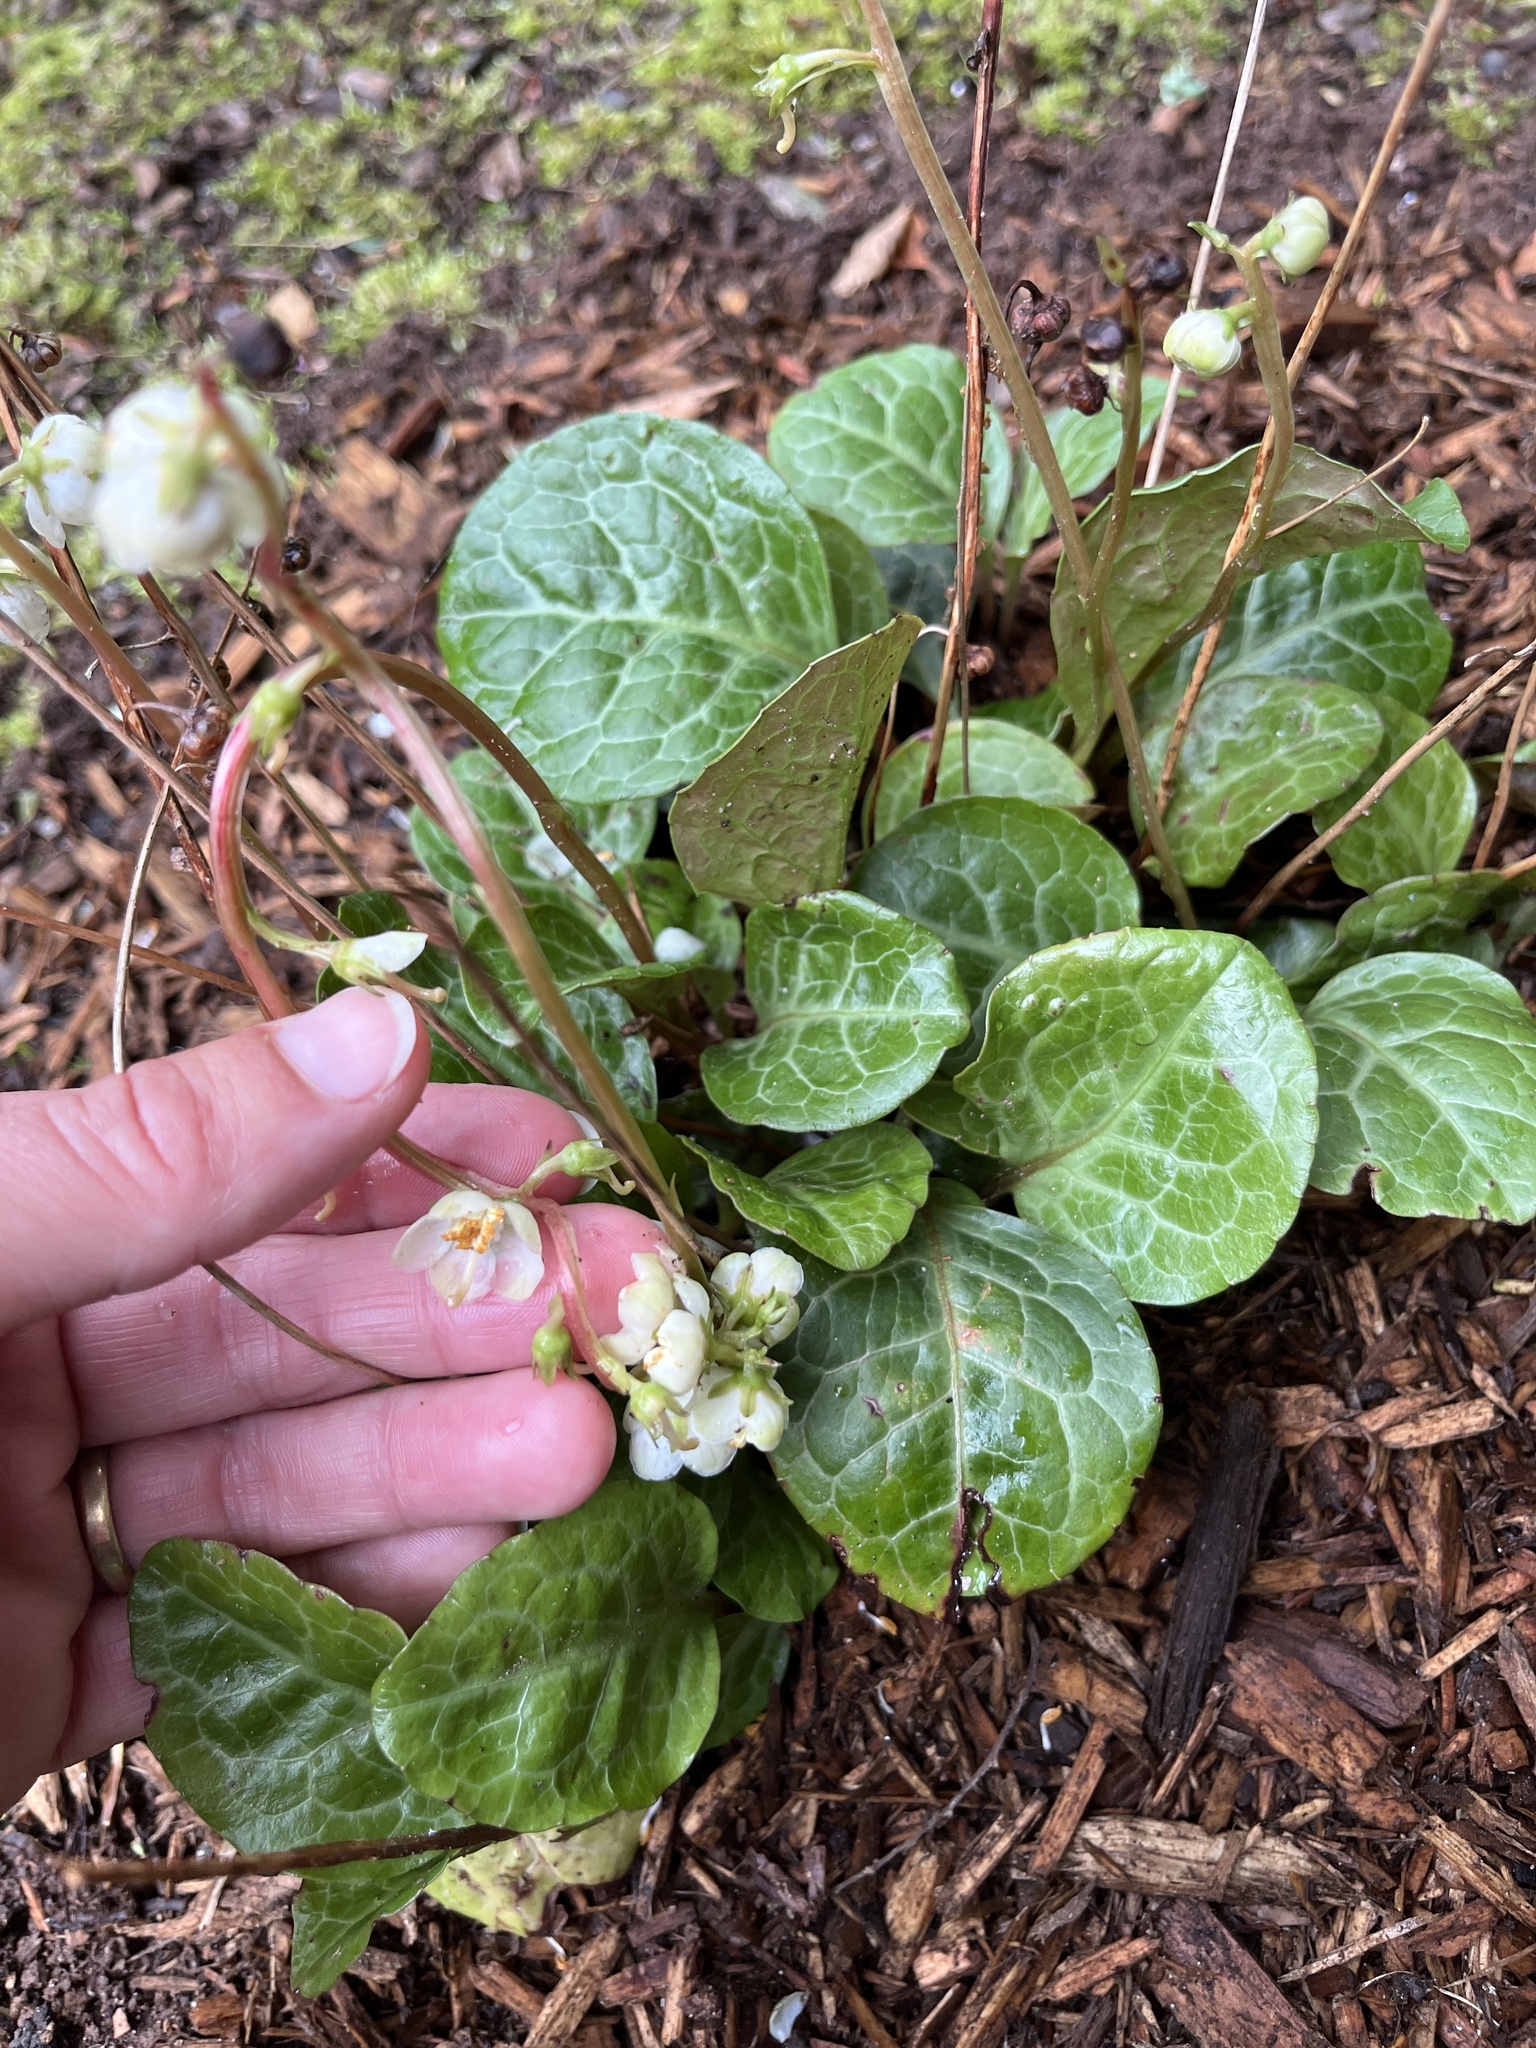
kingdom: Plantae
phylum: Tracheophyta
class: Magnoliopsida
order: Ericales
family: Ericaceae
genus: Pyrola
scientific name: Pyrola americana
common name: American wintergreen
